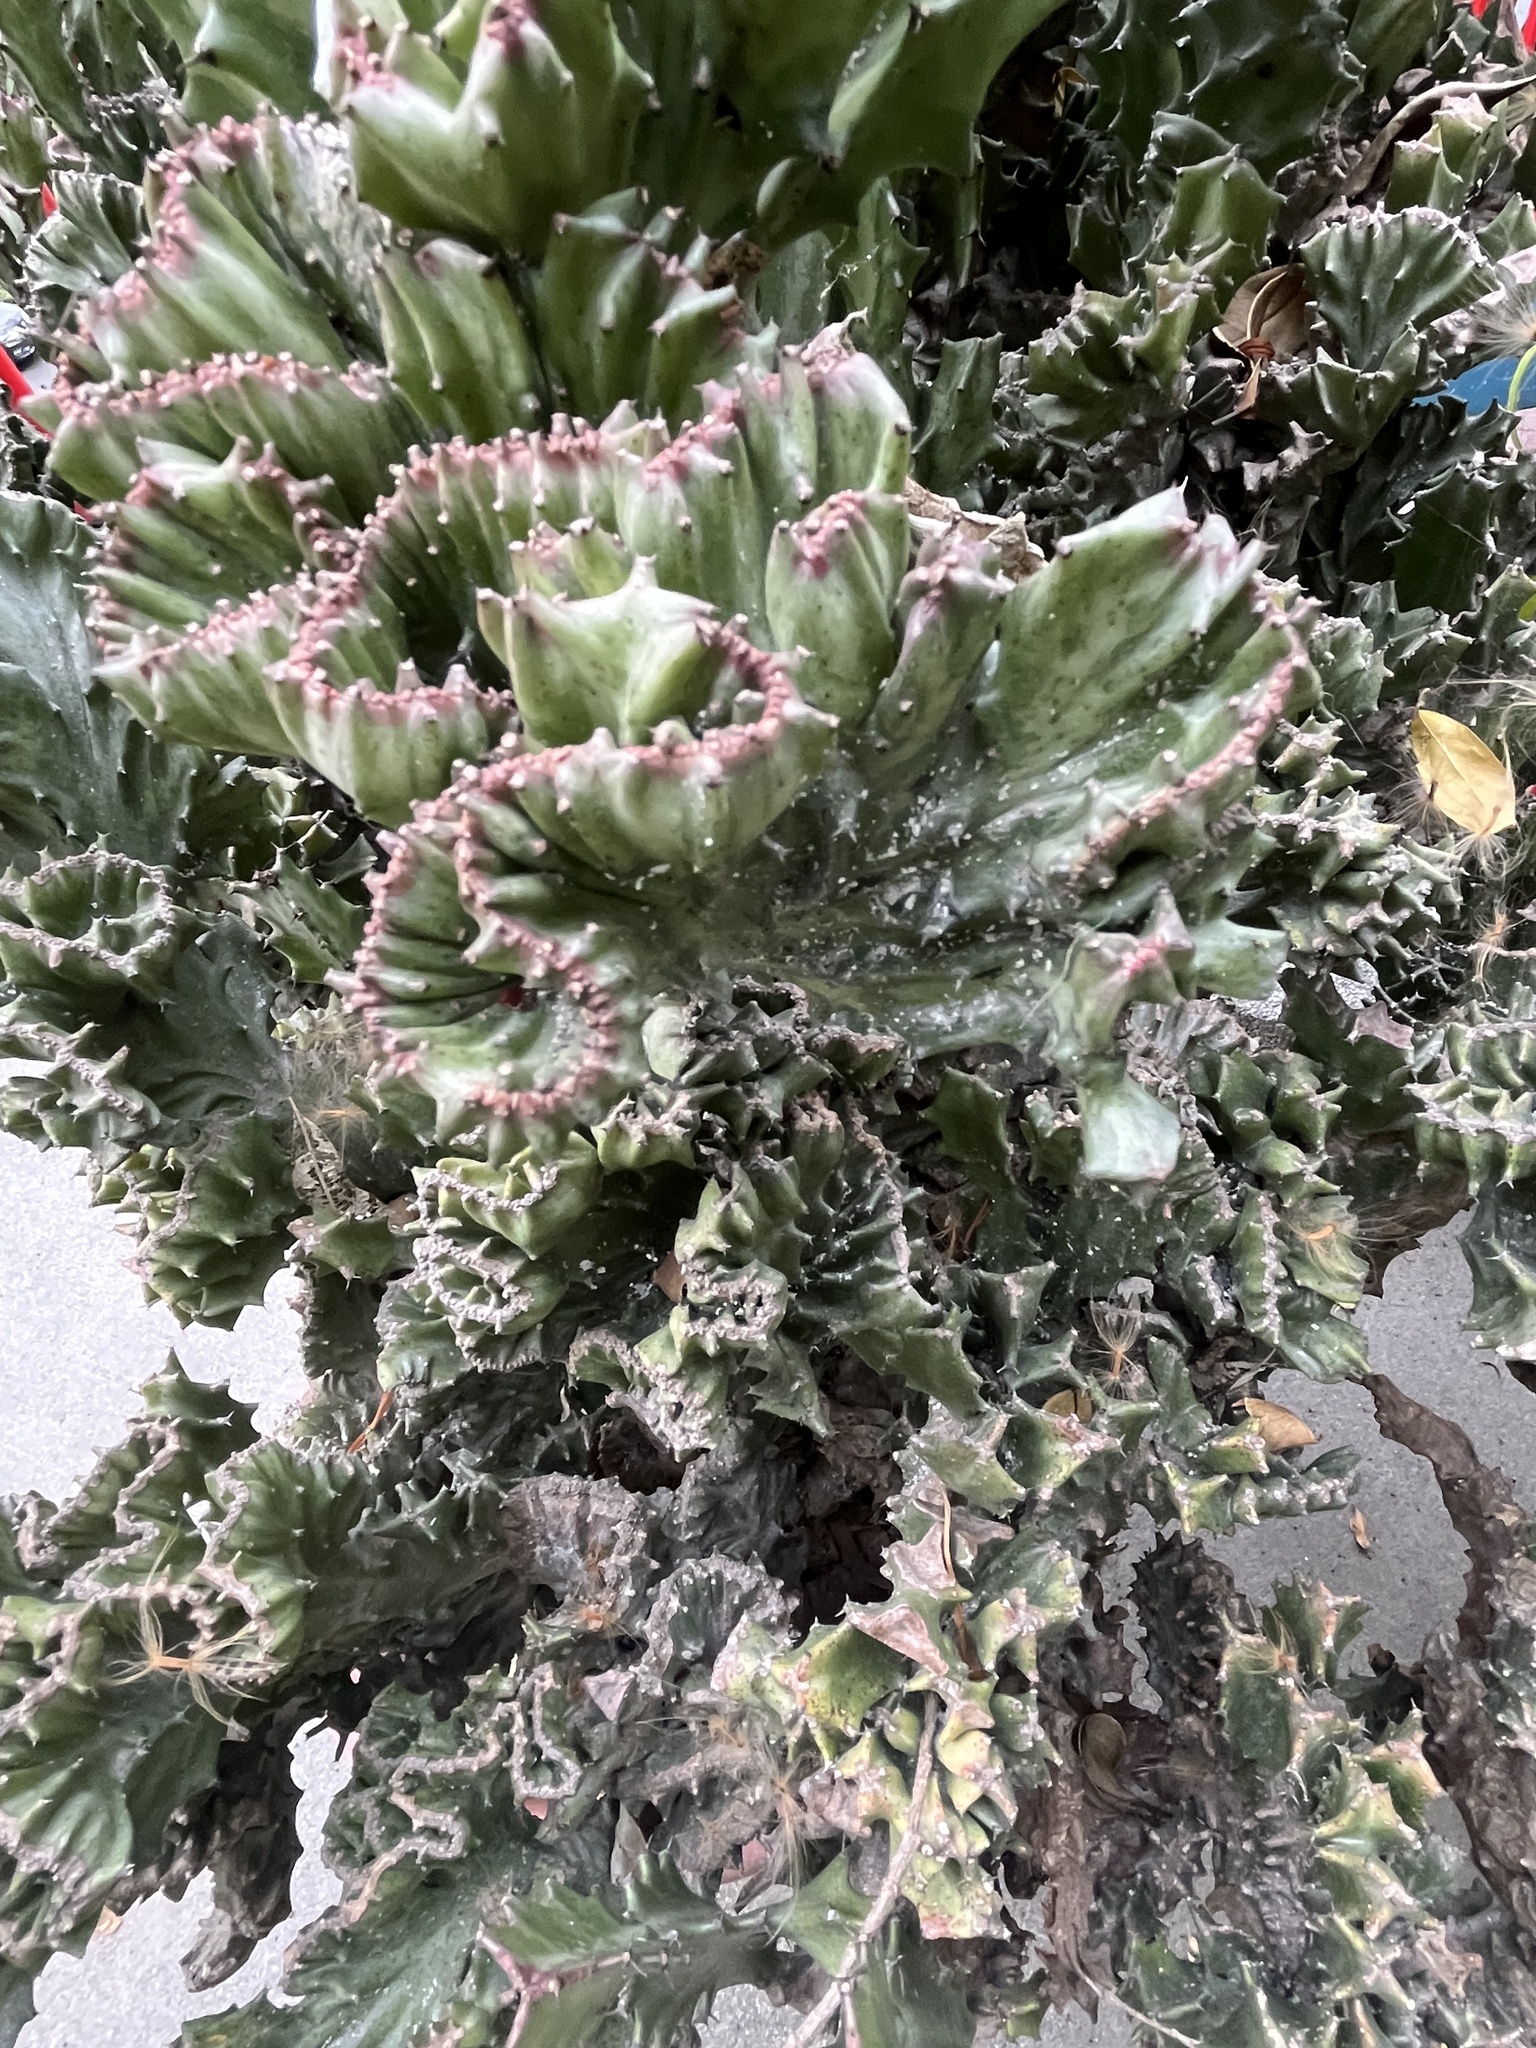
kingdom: Plantae
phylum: Tracheophyta
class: Magnoliopsida
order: Malpighiales
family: Euphorbiaceae
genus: Euphorbia
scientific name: Euphorbia lactea
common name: Mottled spurge
